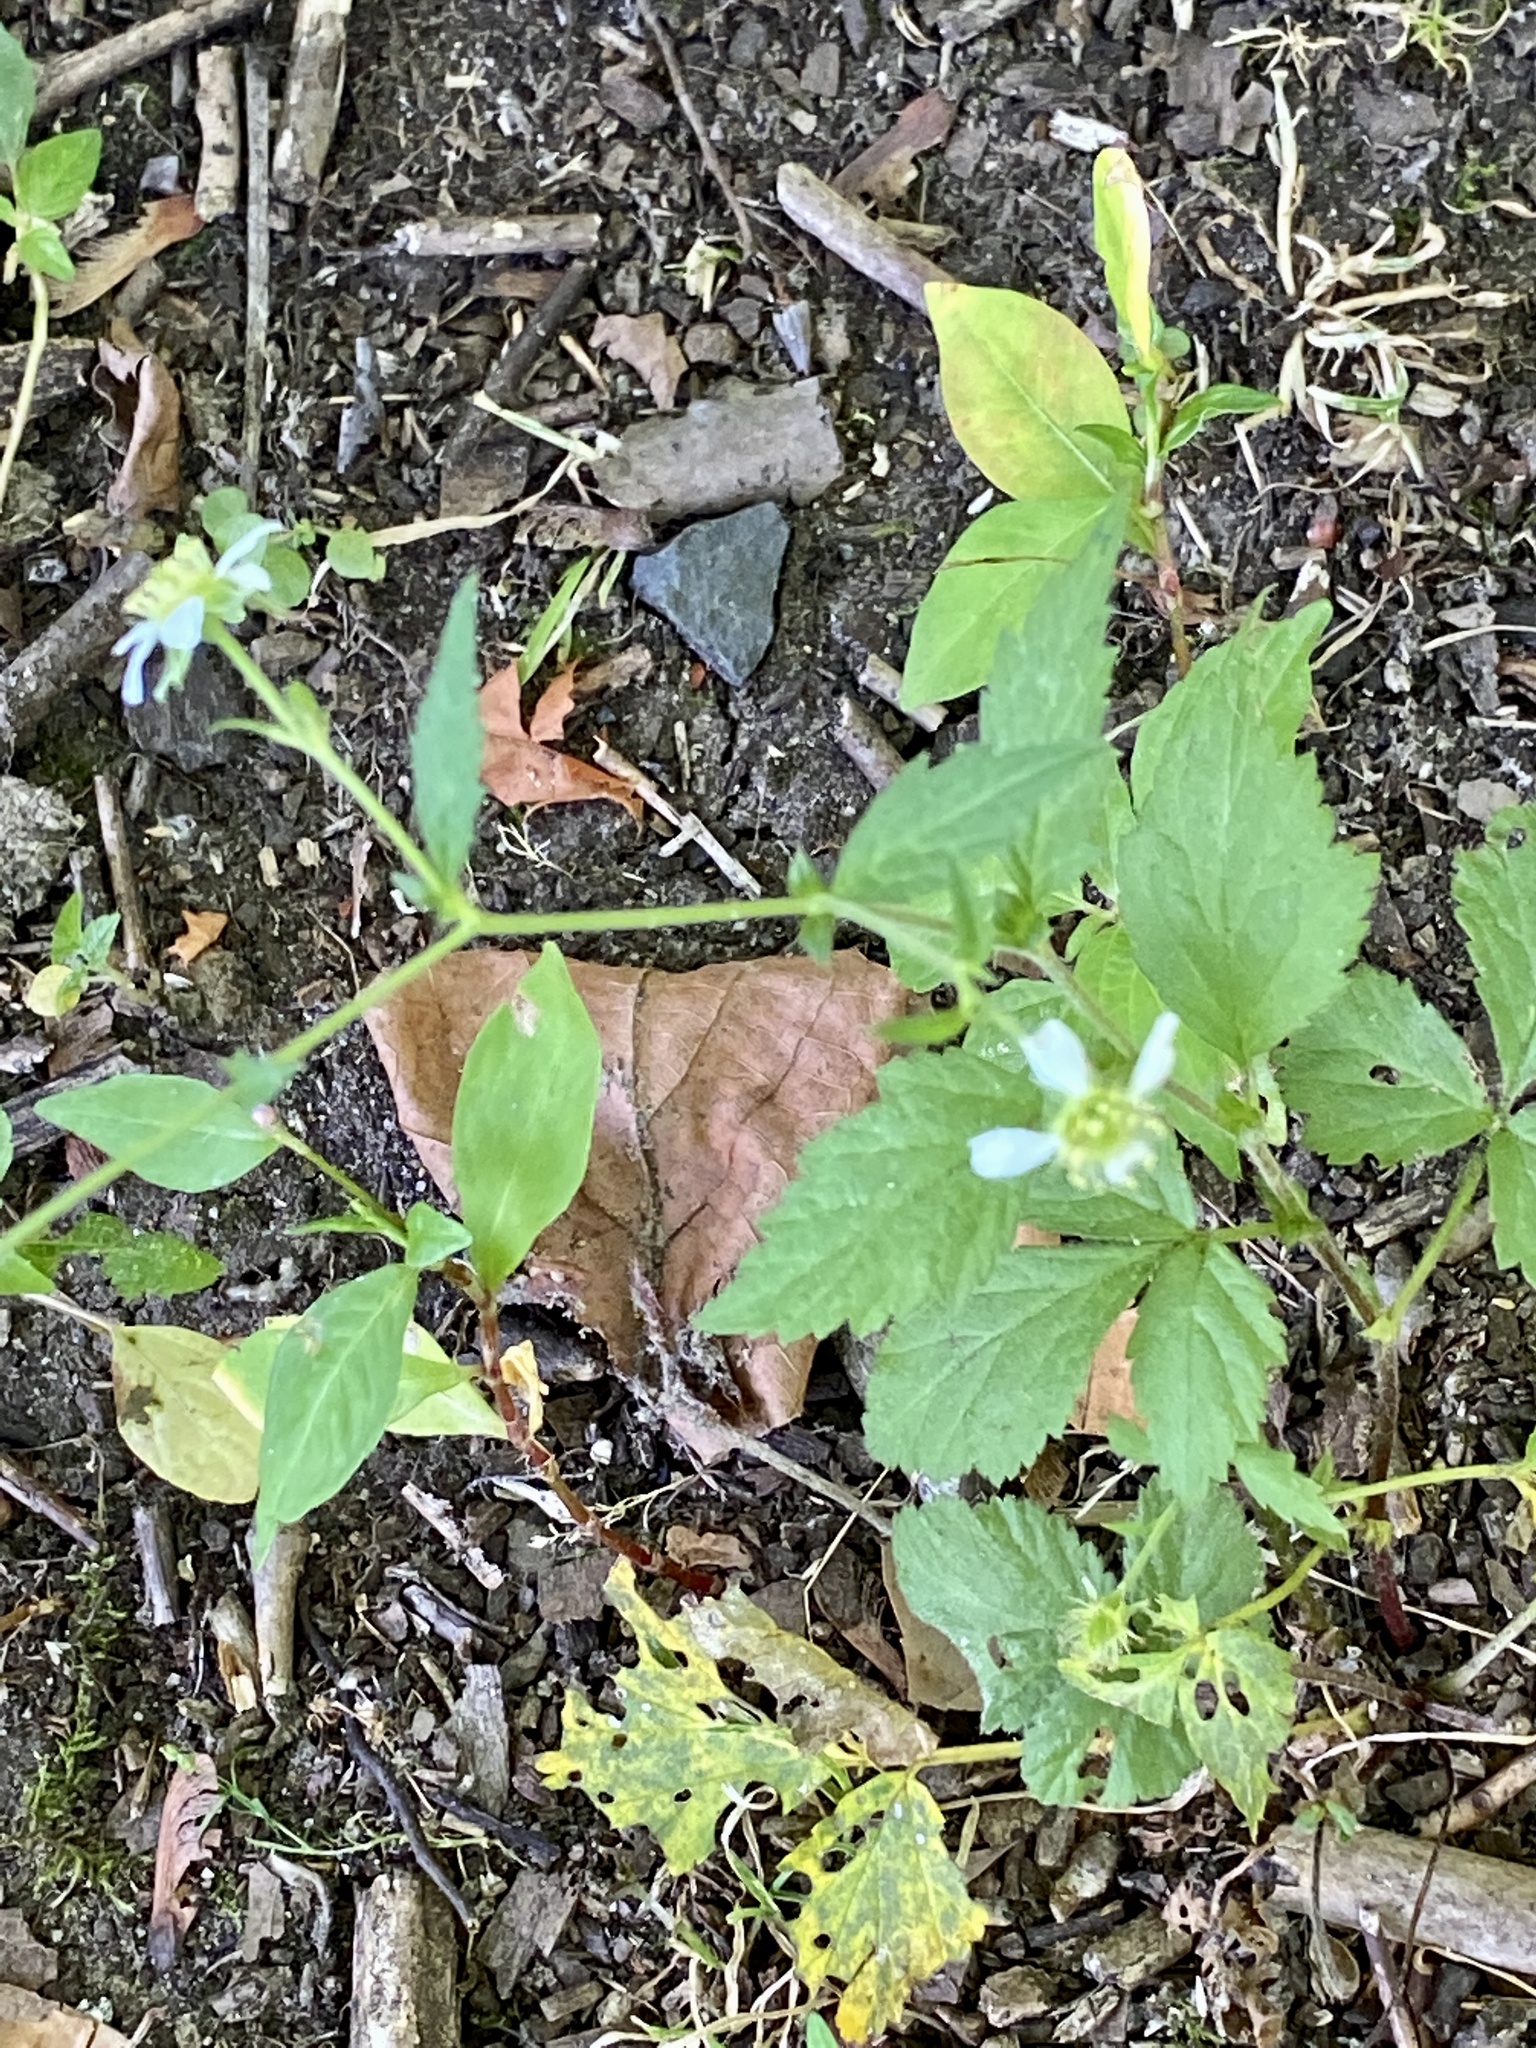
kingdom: Plantae
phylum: Tracheophyta
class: Magnoliopsida
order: Rosales
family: Rosaceae
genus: Geum
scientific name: Geum canadense
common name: White avens
